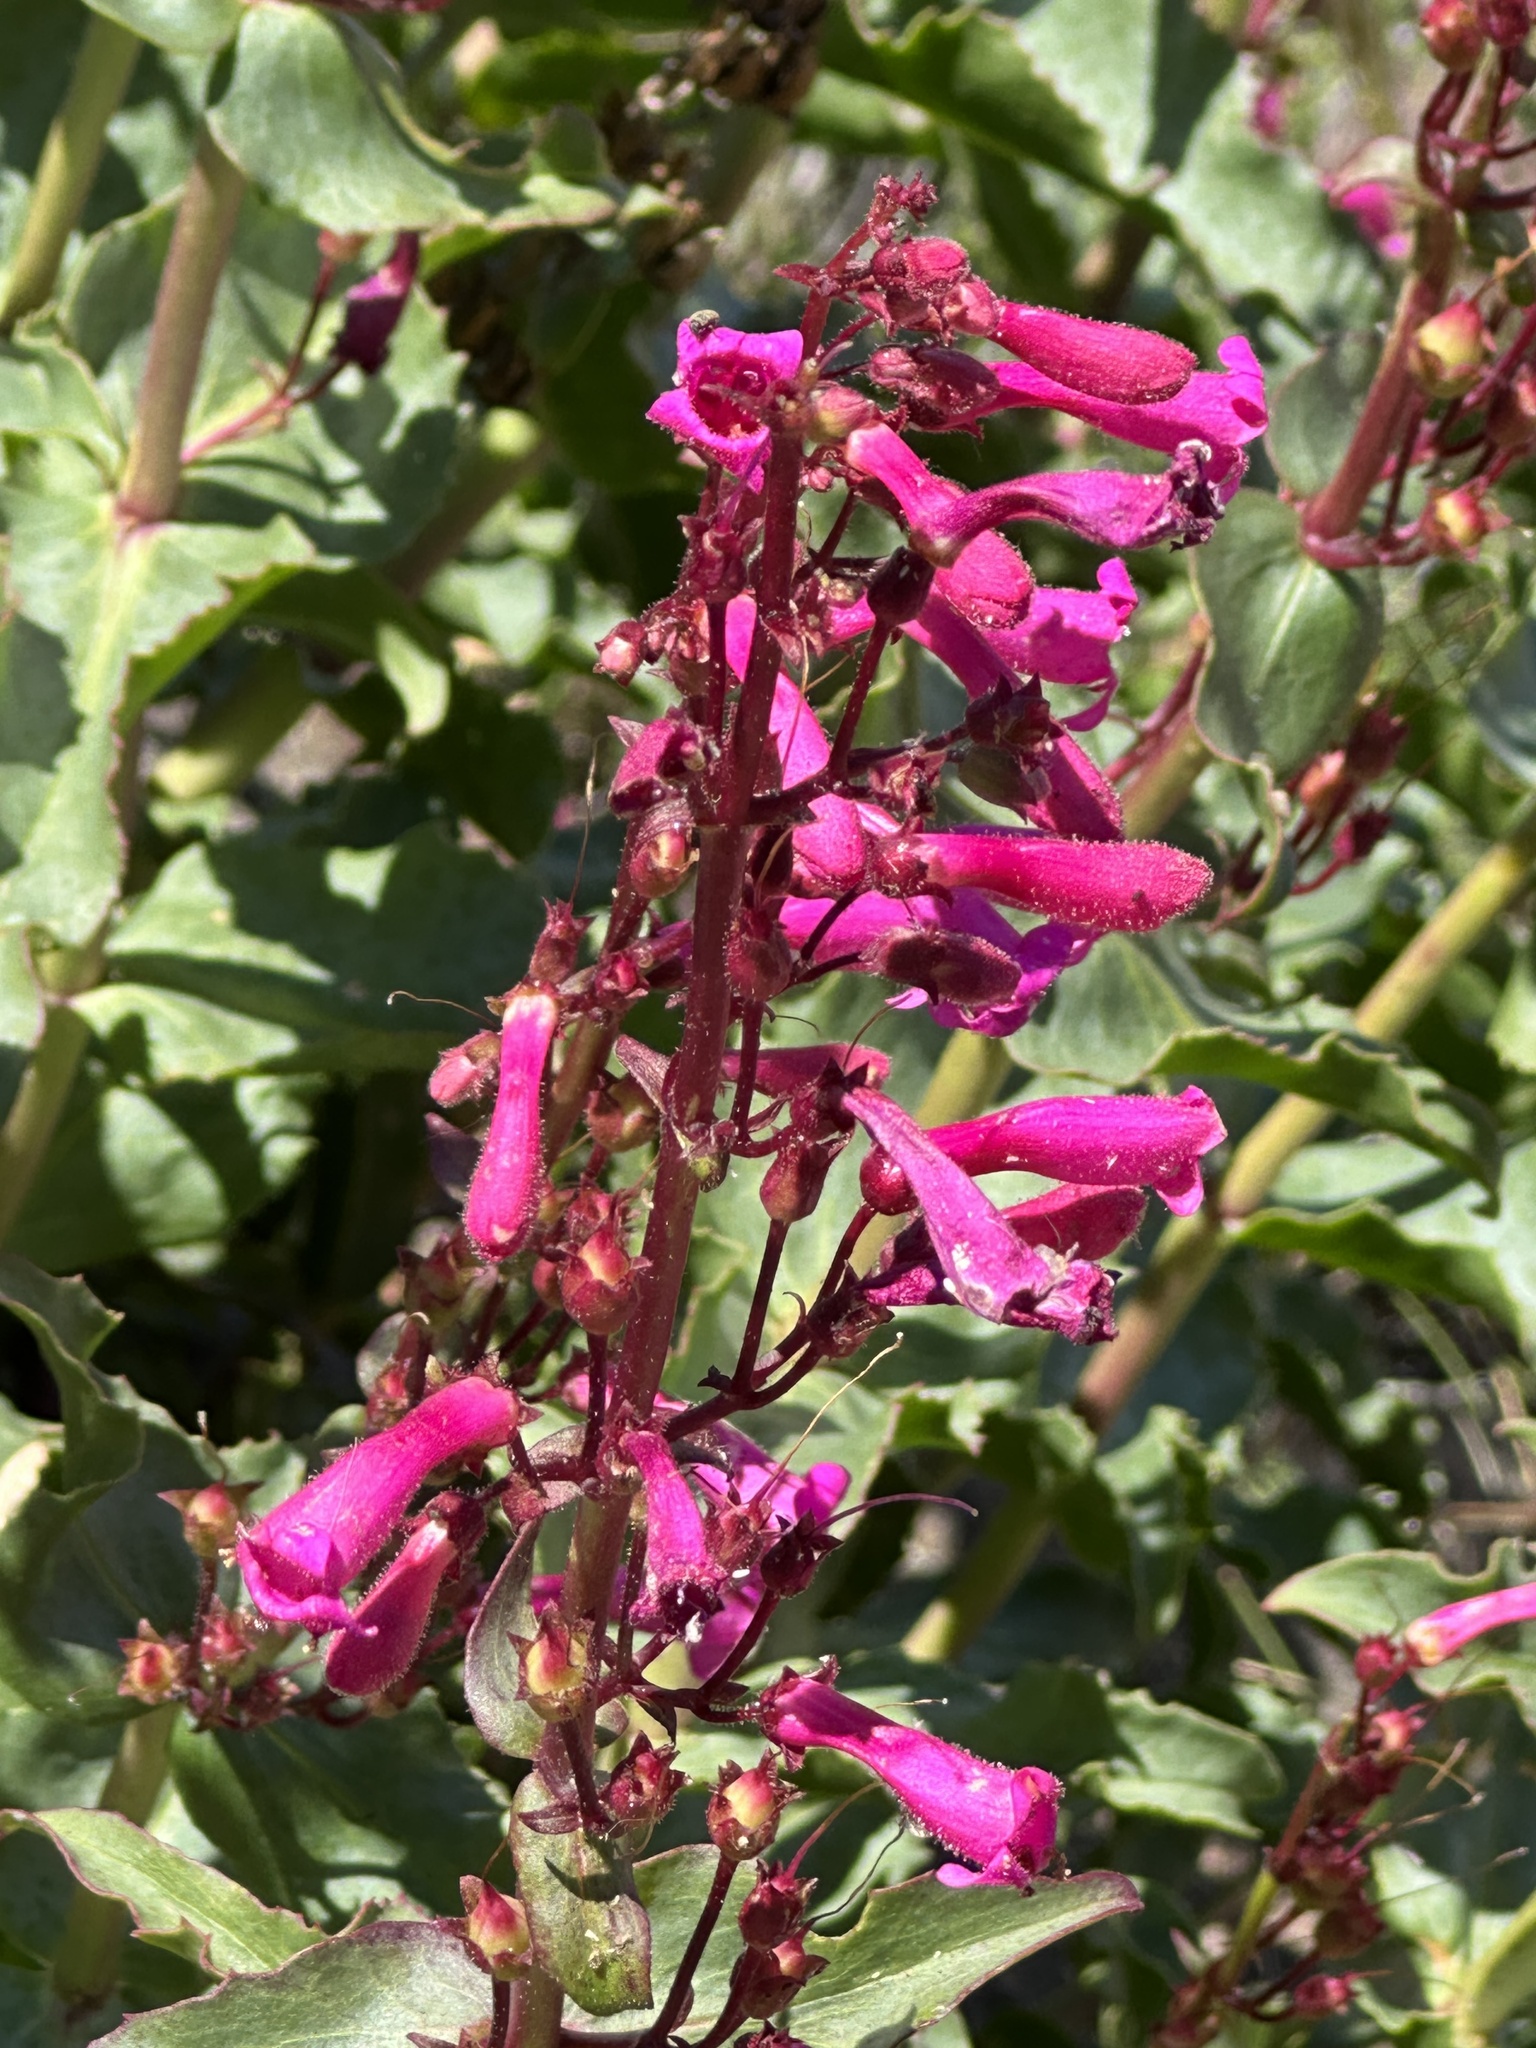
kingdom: Plantae
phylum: Tracheophyta
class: Magnoliopsida
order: Lamiales
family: Plantaginaceae
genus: Penstemon
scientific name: Penstemon clevelandii
